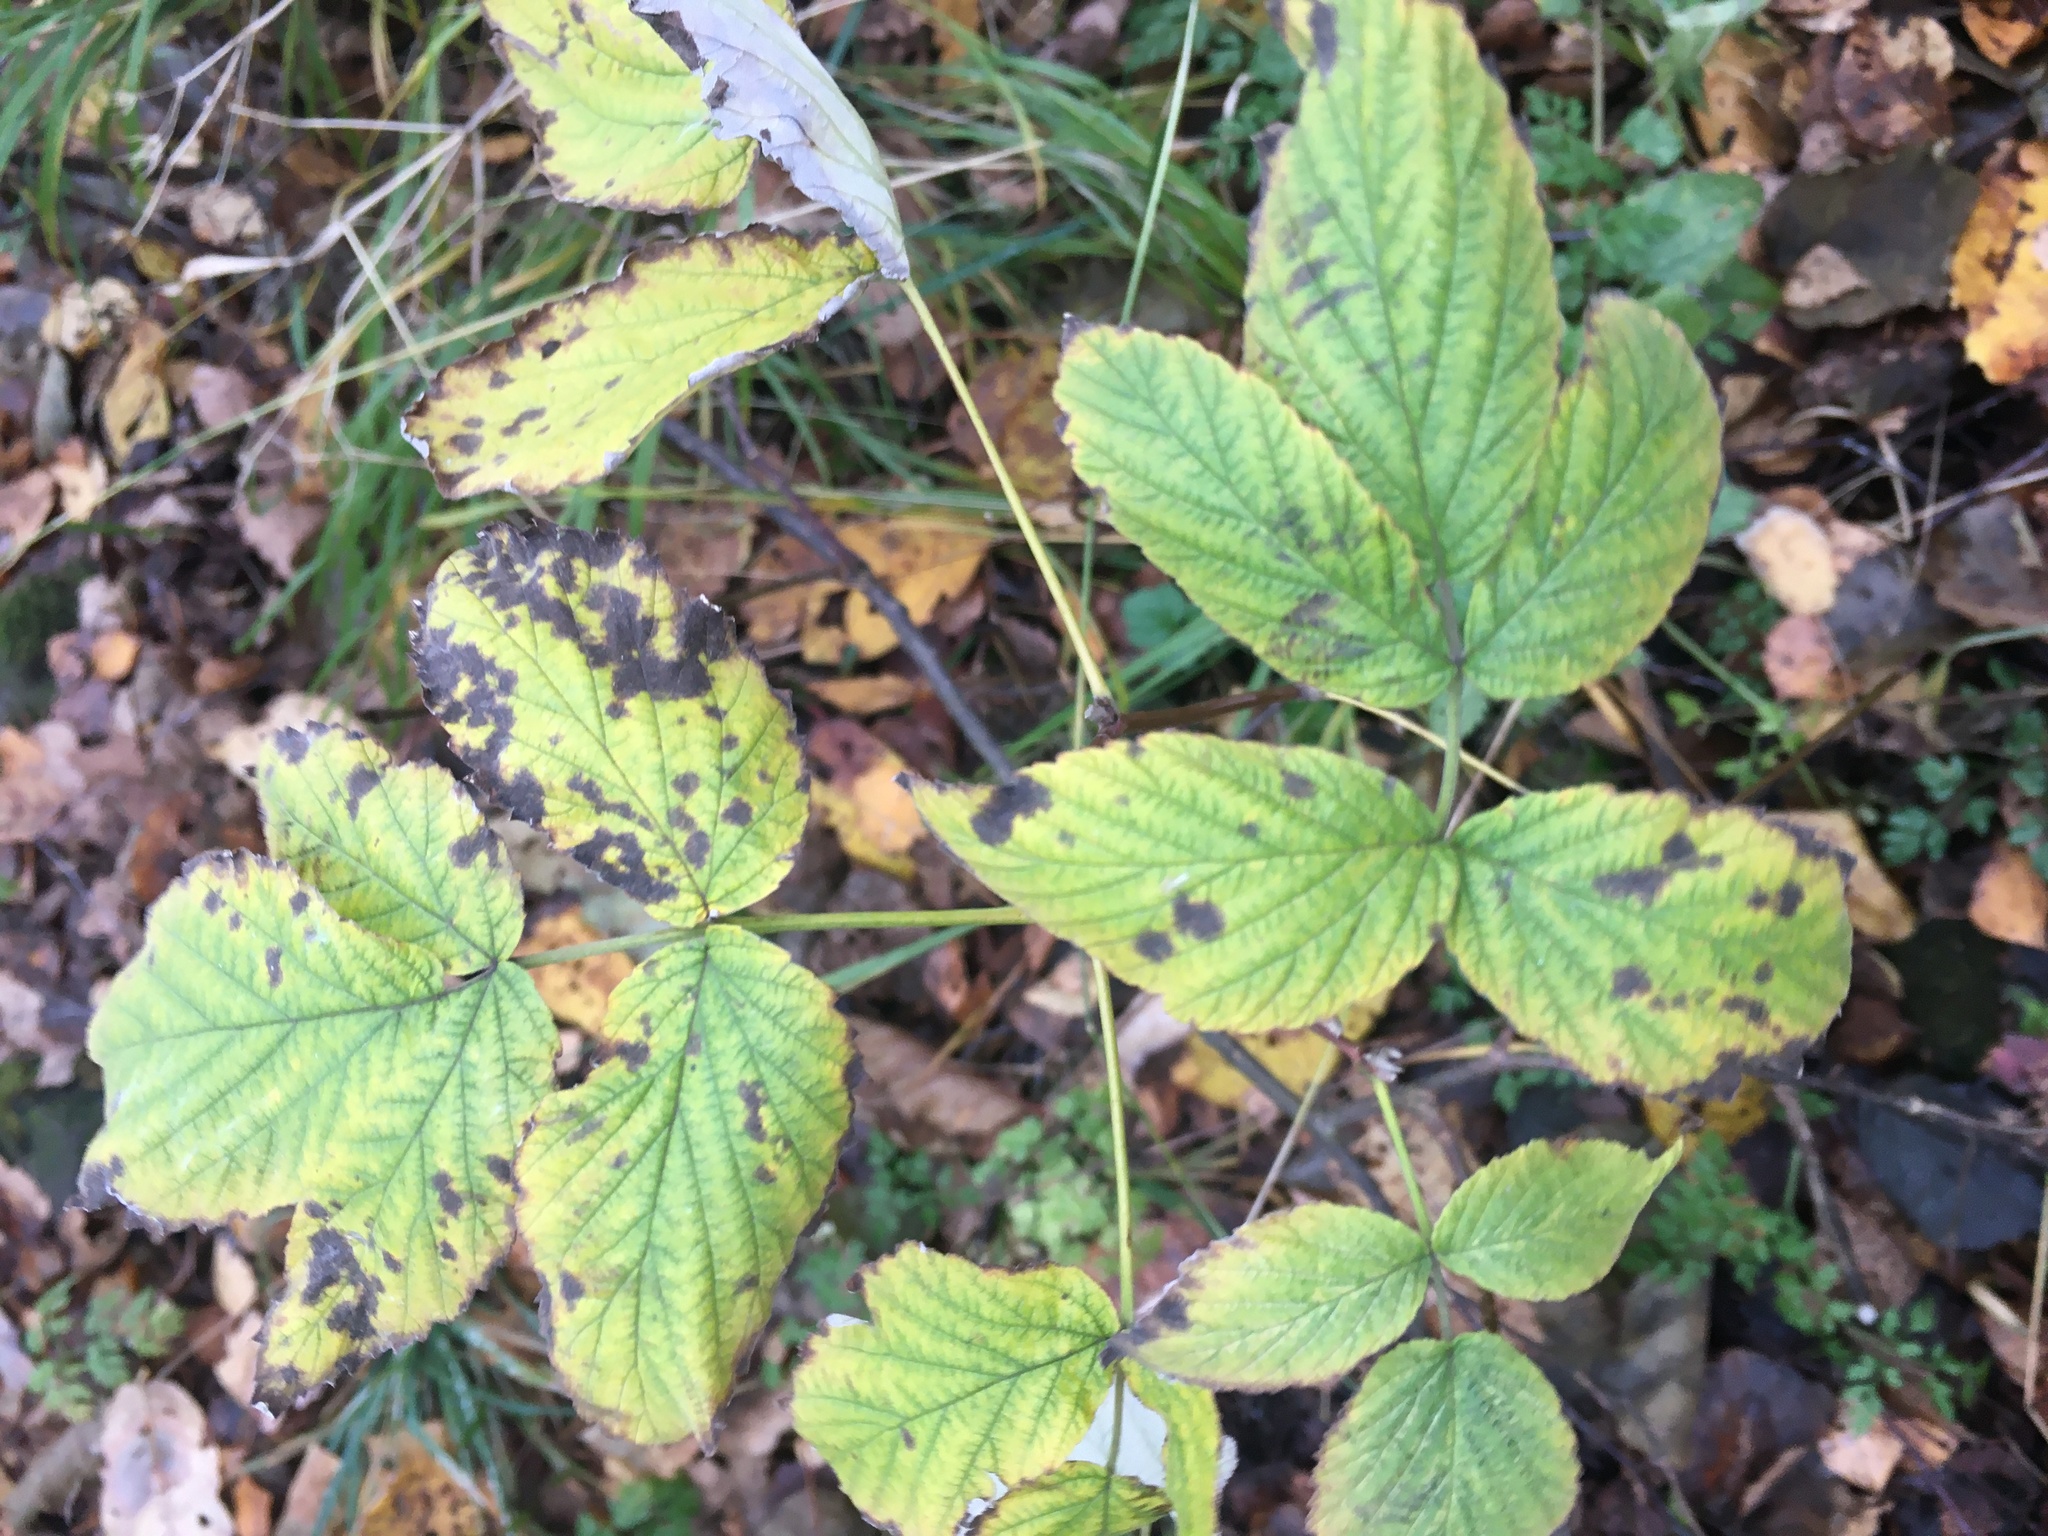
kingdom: Plantae
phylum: Tracheophyta
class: Magnoliopsida
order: Rosales
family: Rosaceae
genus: Rubus
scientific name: Rubus idaeus
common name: Raspberry
